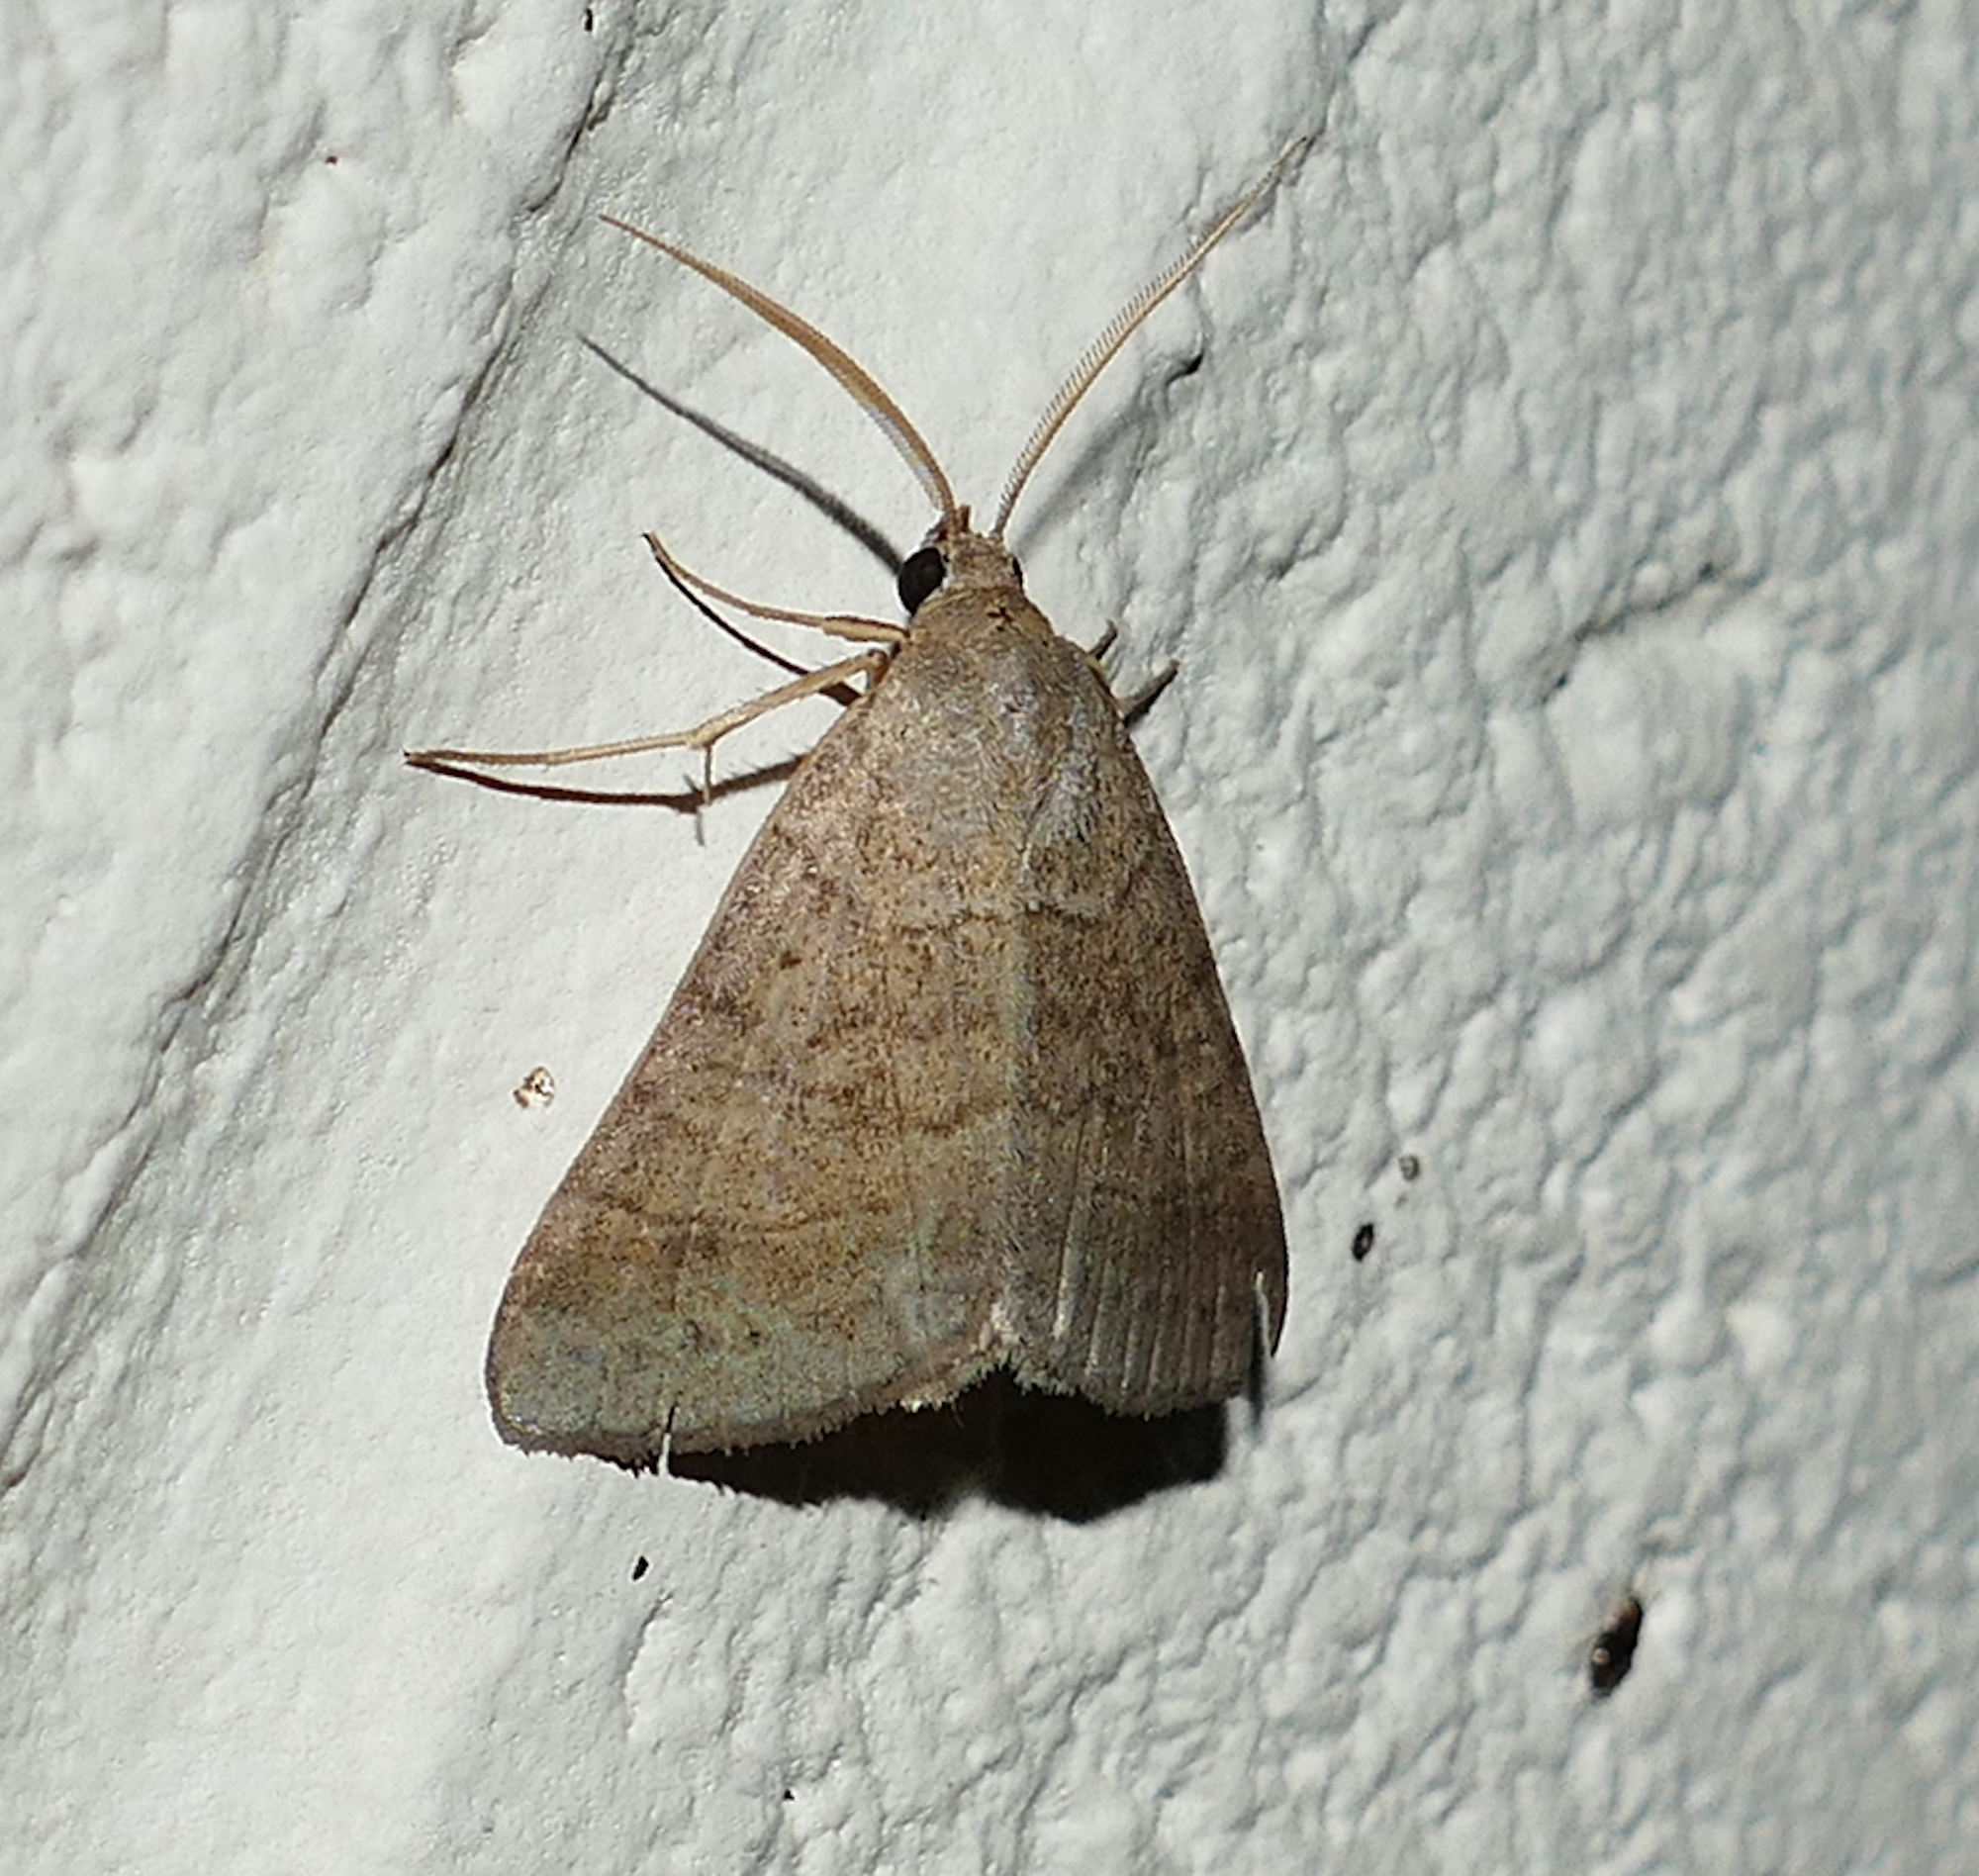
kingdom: Animalia
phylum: Arthropoda
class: Insecta
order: Lepidoptera
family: Erebidae
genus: Caenurgia
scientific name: Caenurgia chloropha
